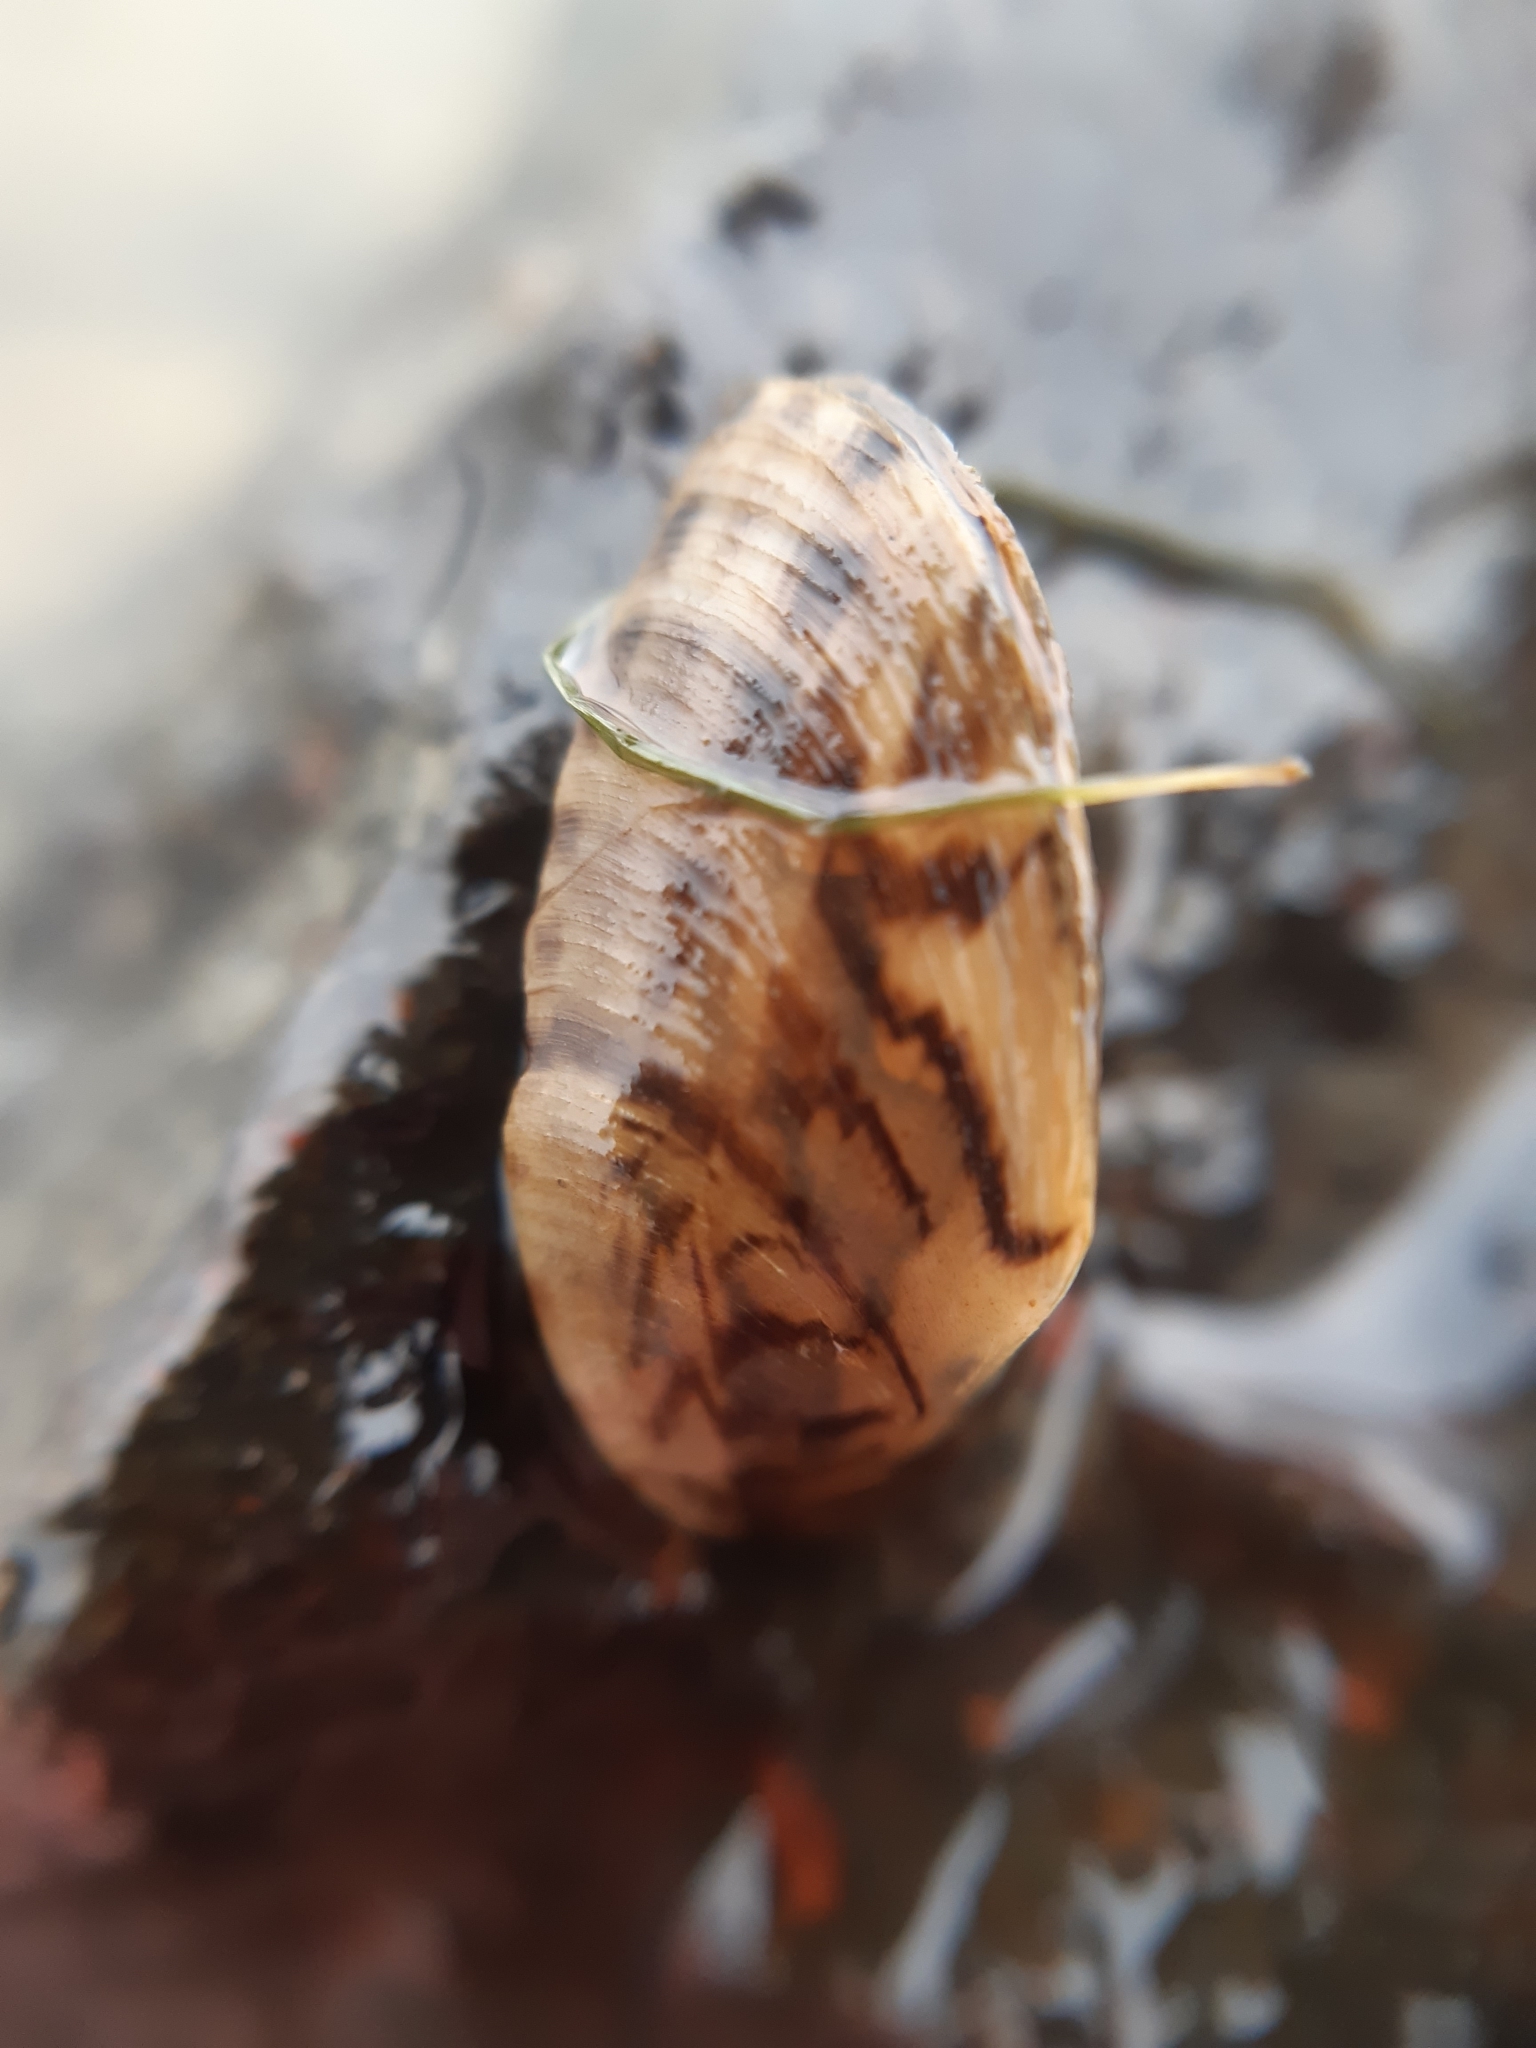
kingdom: Animalia
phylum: Mollusca
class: Bivalvia
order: Myida
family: Dreissenidae
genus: Dreissena
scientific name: Dreissena polymorpha
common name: Zebra mussel
